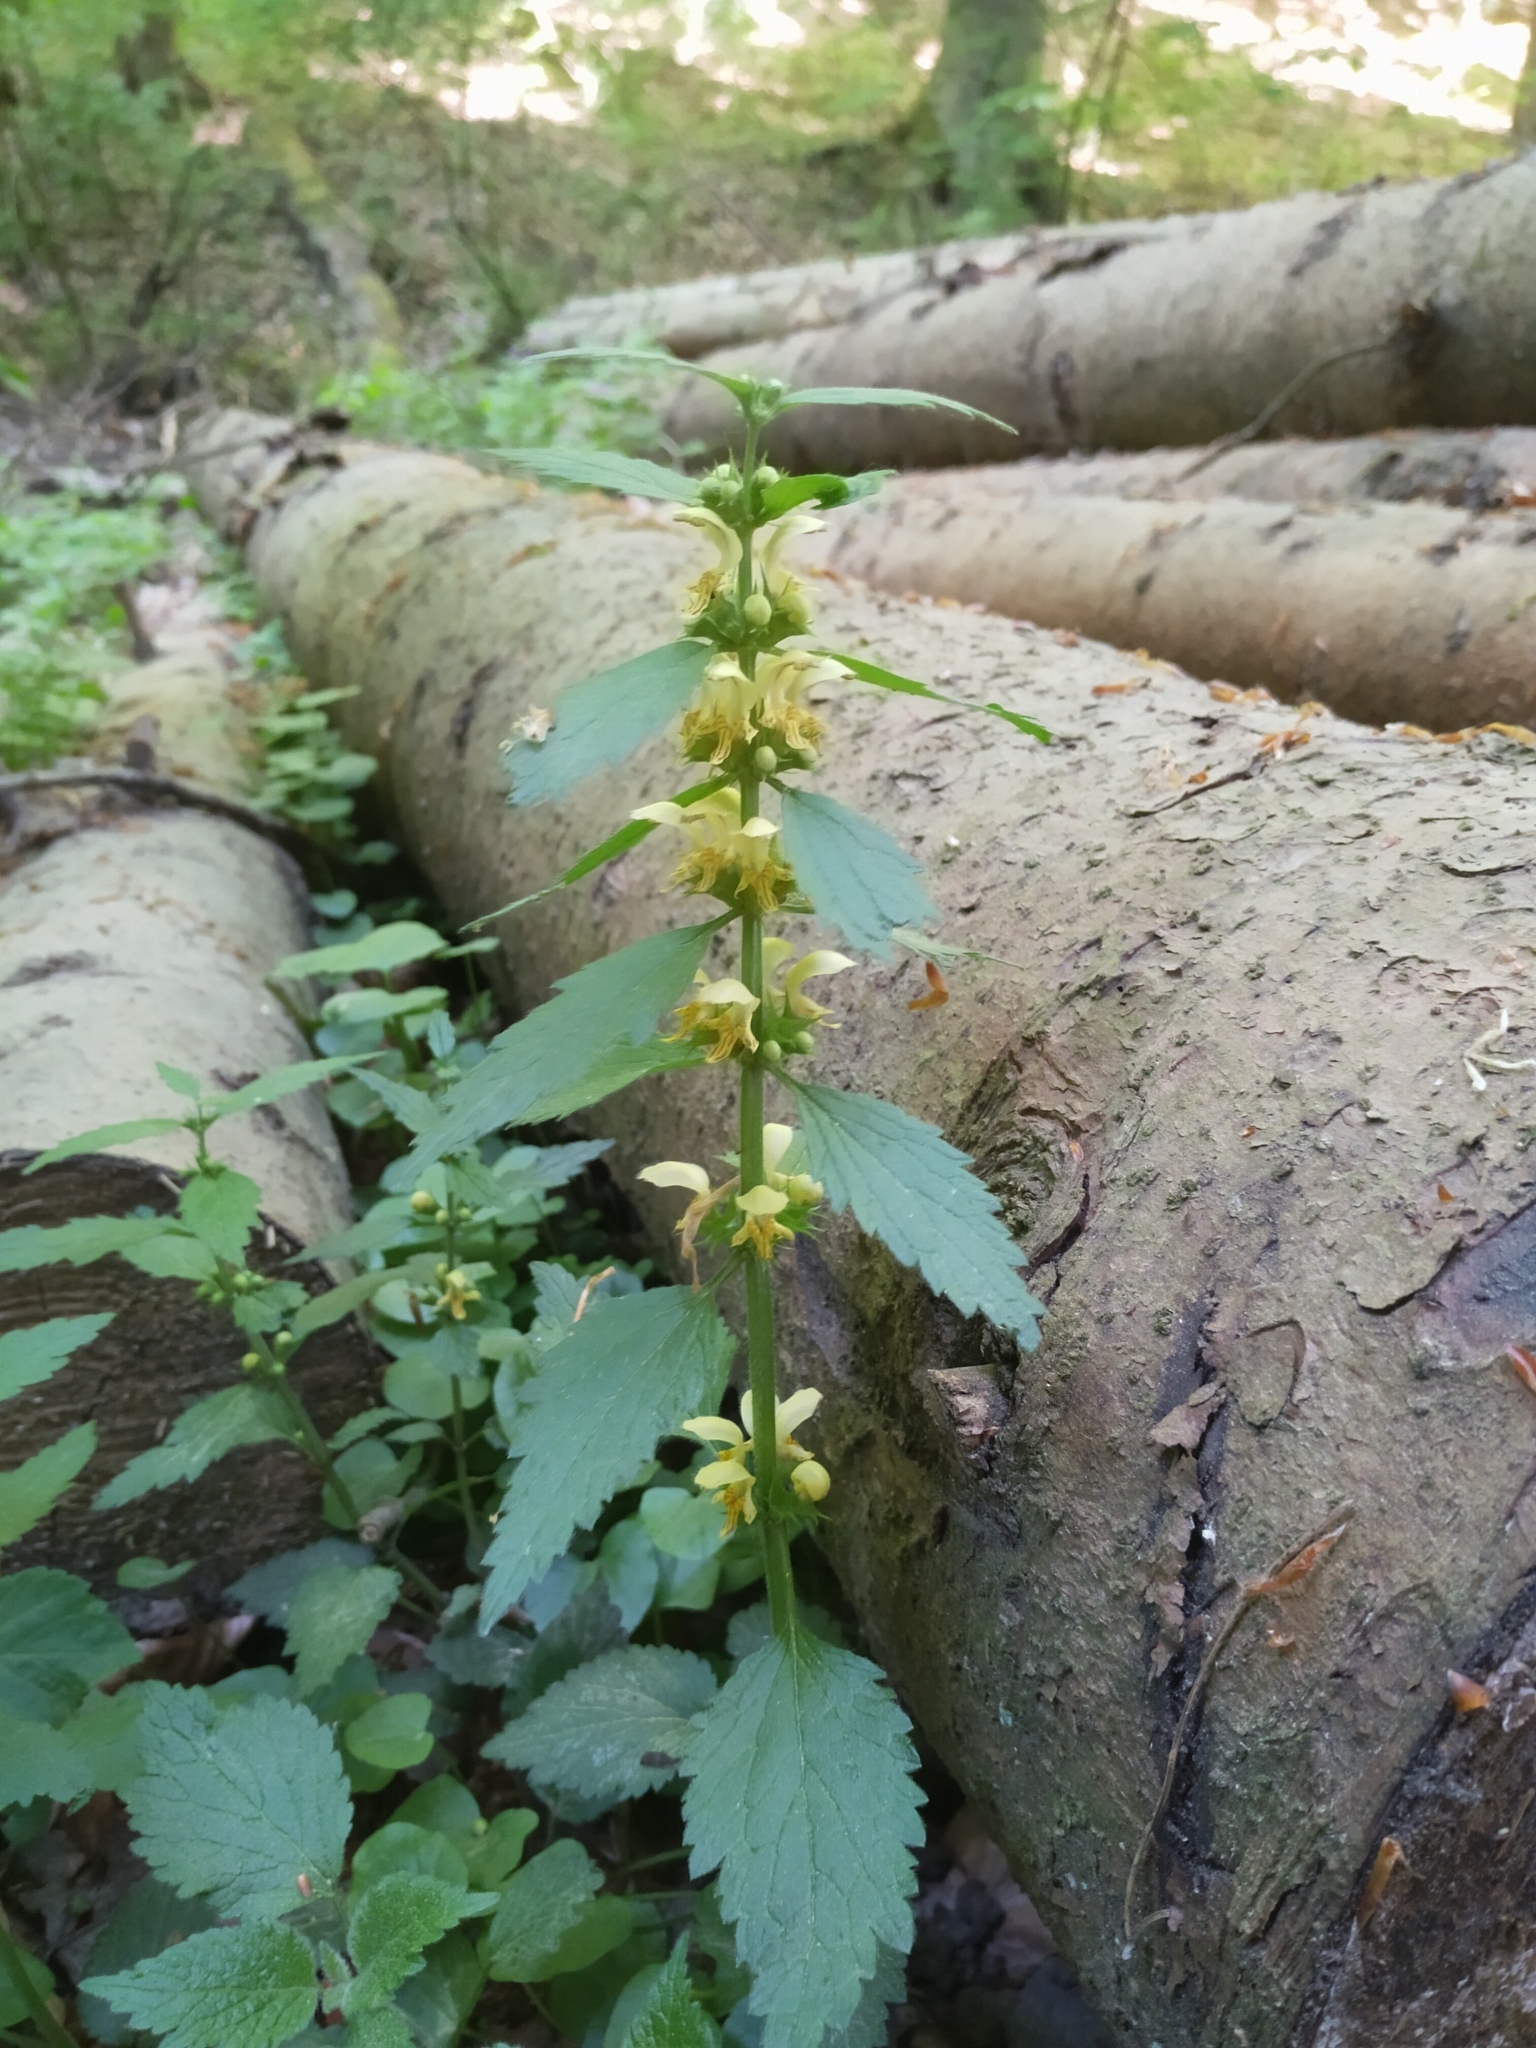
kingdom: Plantae
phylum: Tracheophyta
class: Magnoliopsida
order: Lamiales
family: Lamiaceae
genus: Lamium
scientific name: Lamium galeobdolon
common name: Yellow archangel
